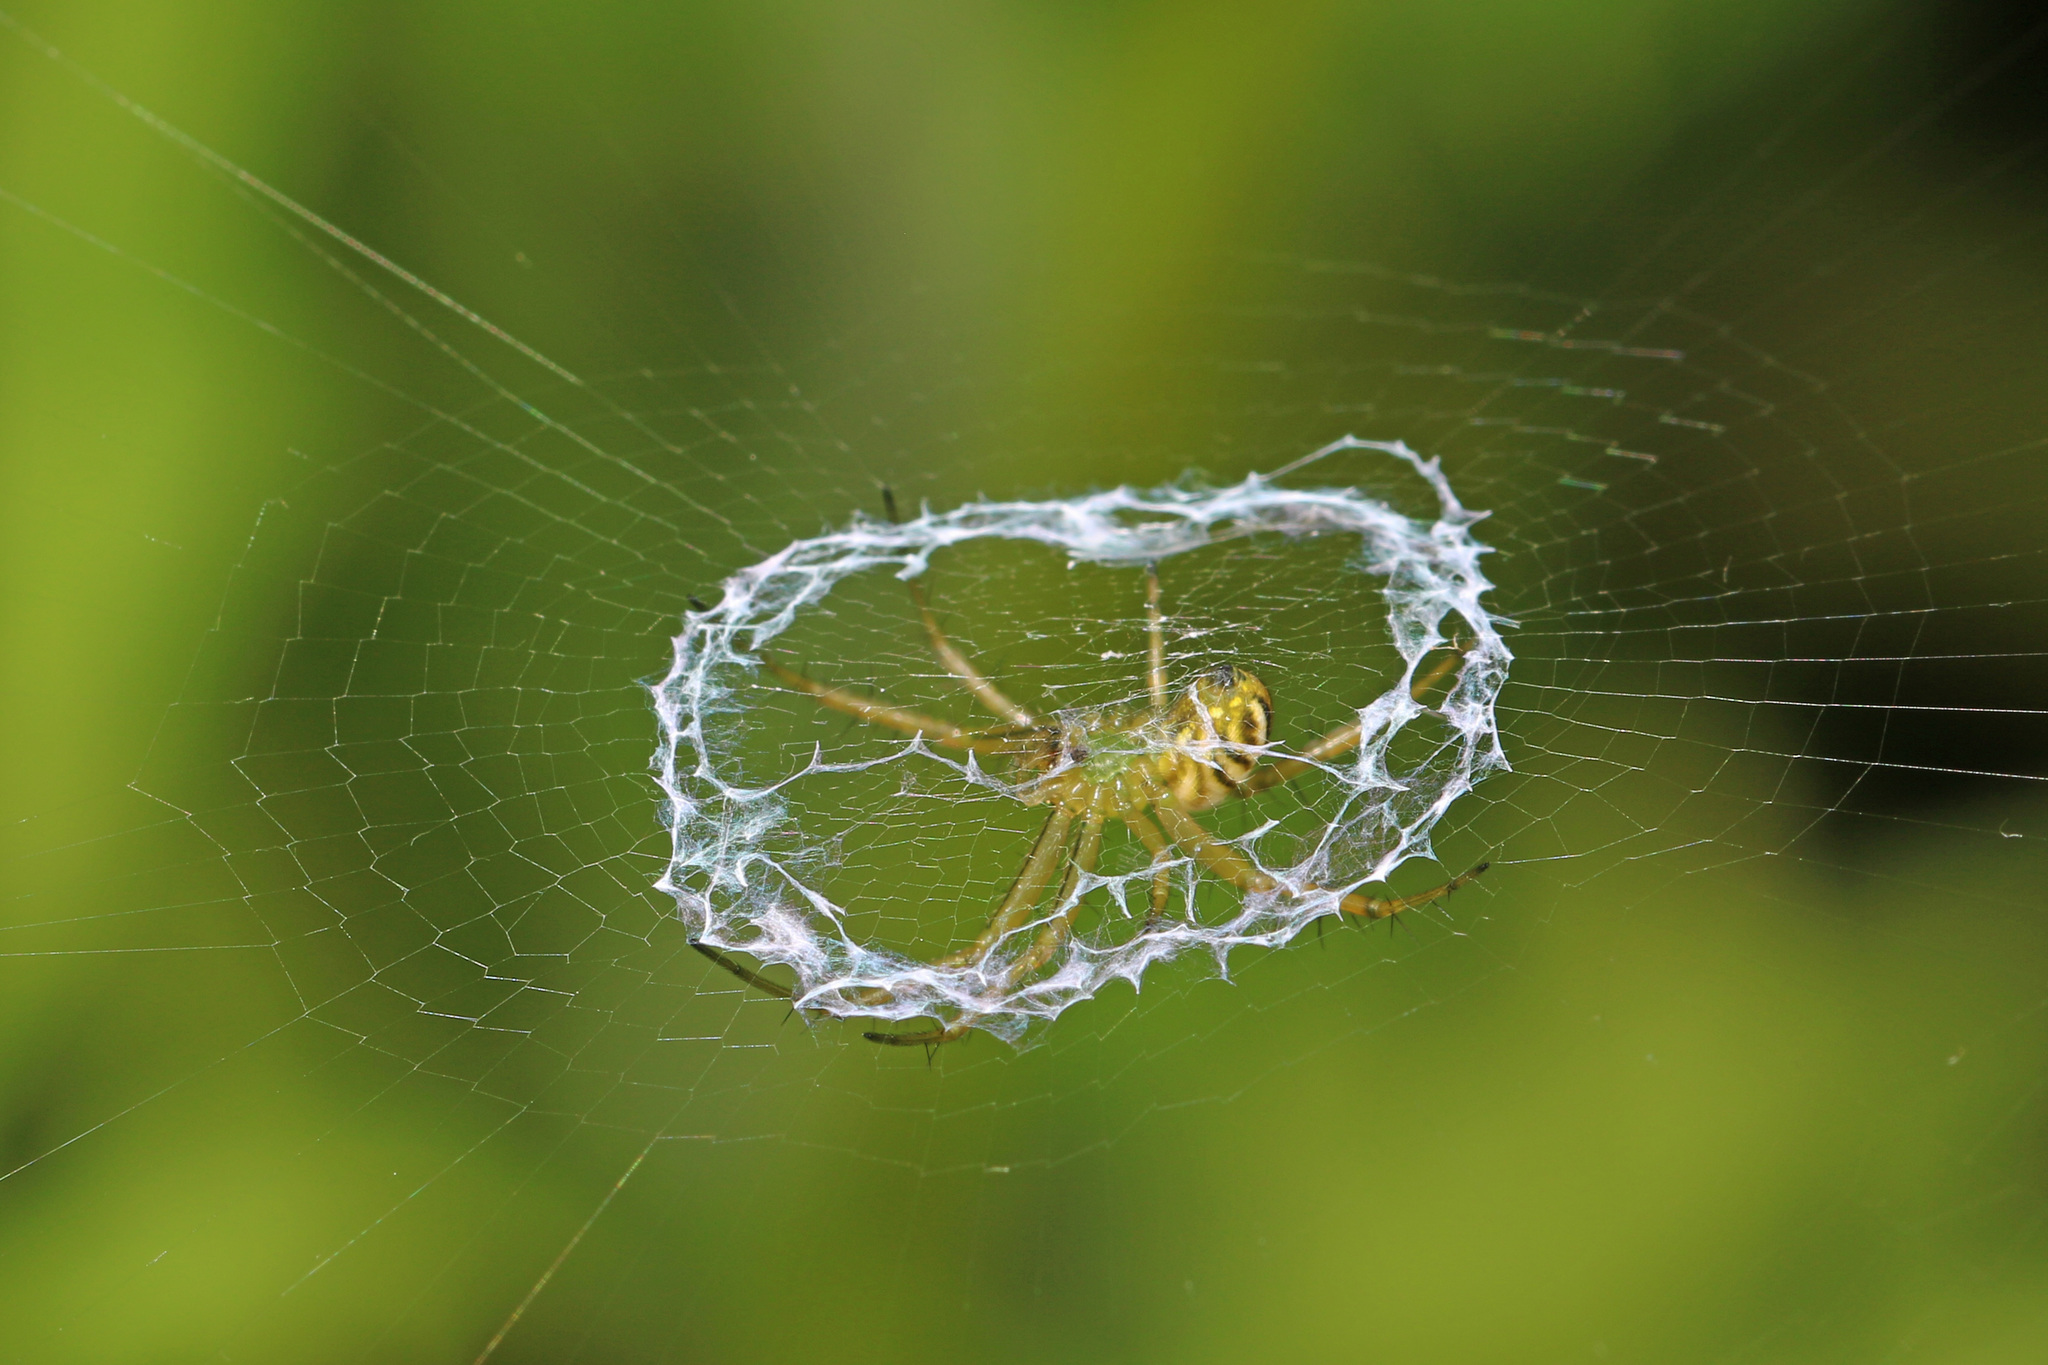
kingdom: Animalia
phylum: Arthropoda
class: Arachnida
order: Araneae
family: Araneidae
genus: Mangora
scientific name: Mangora gibberosa
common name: Lined orbweaver
